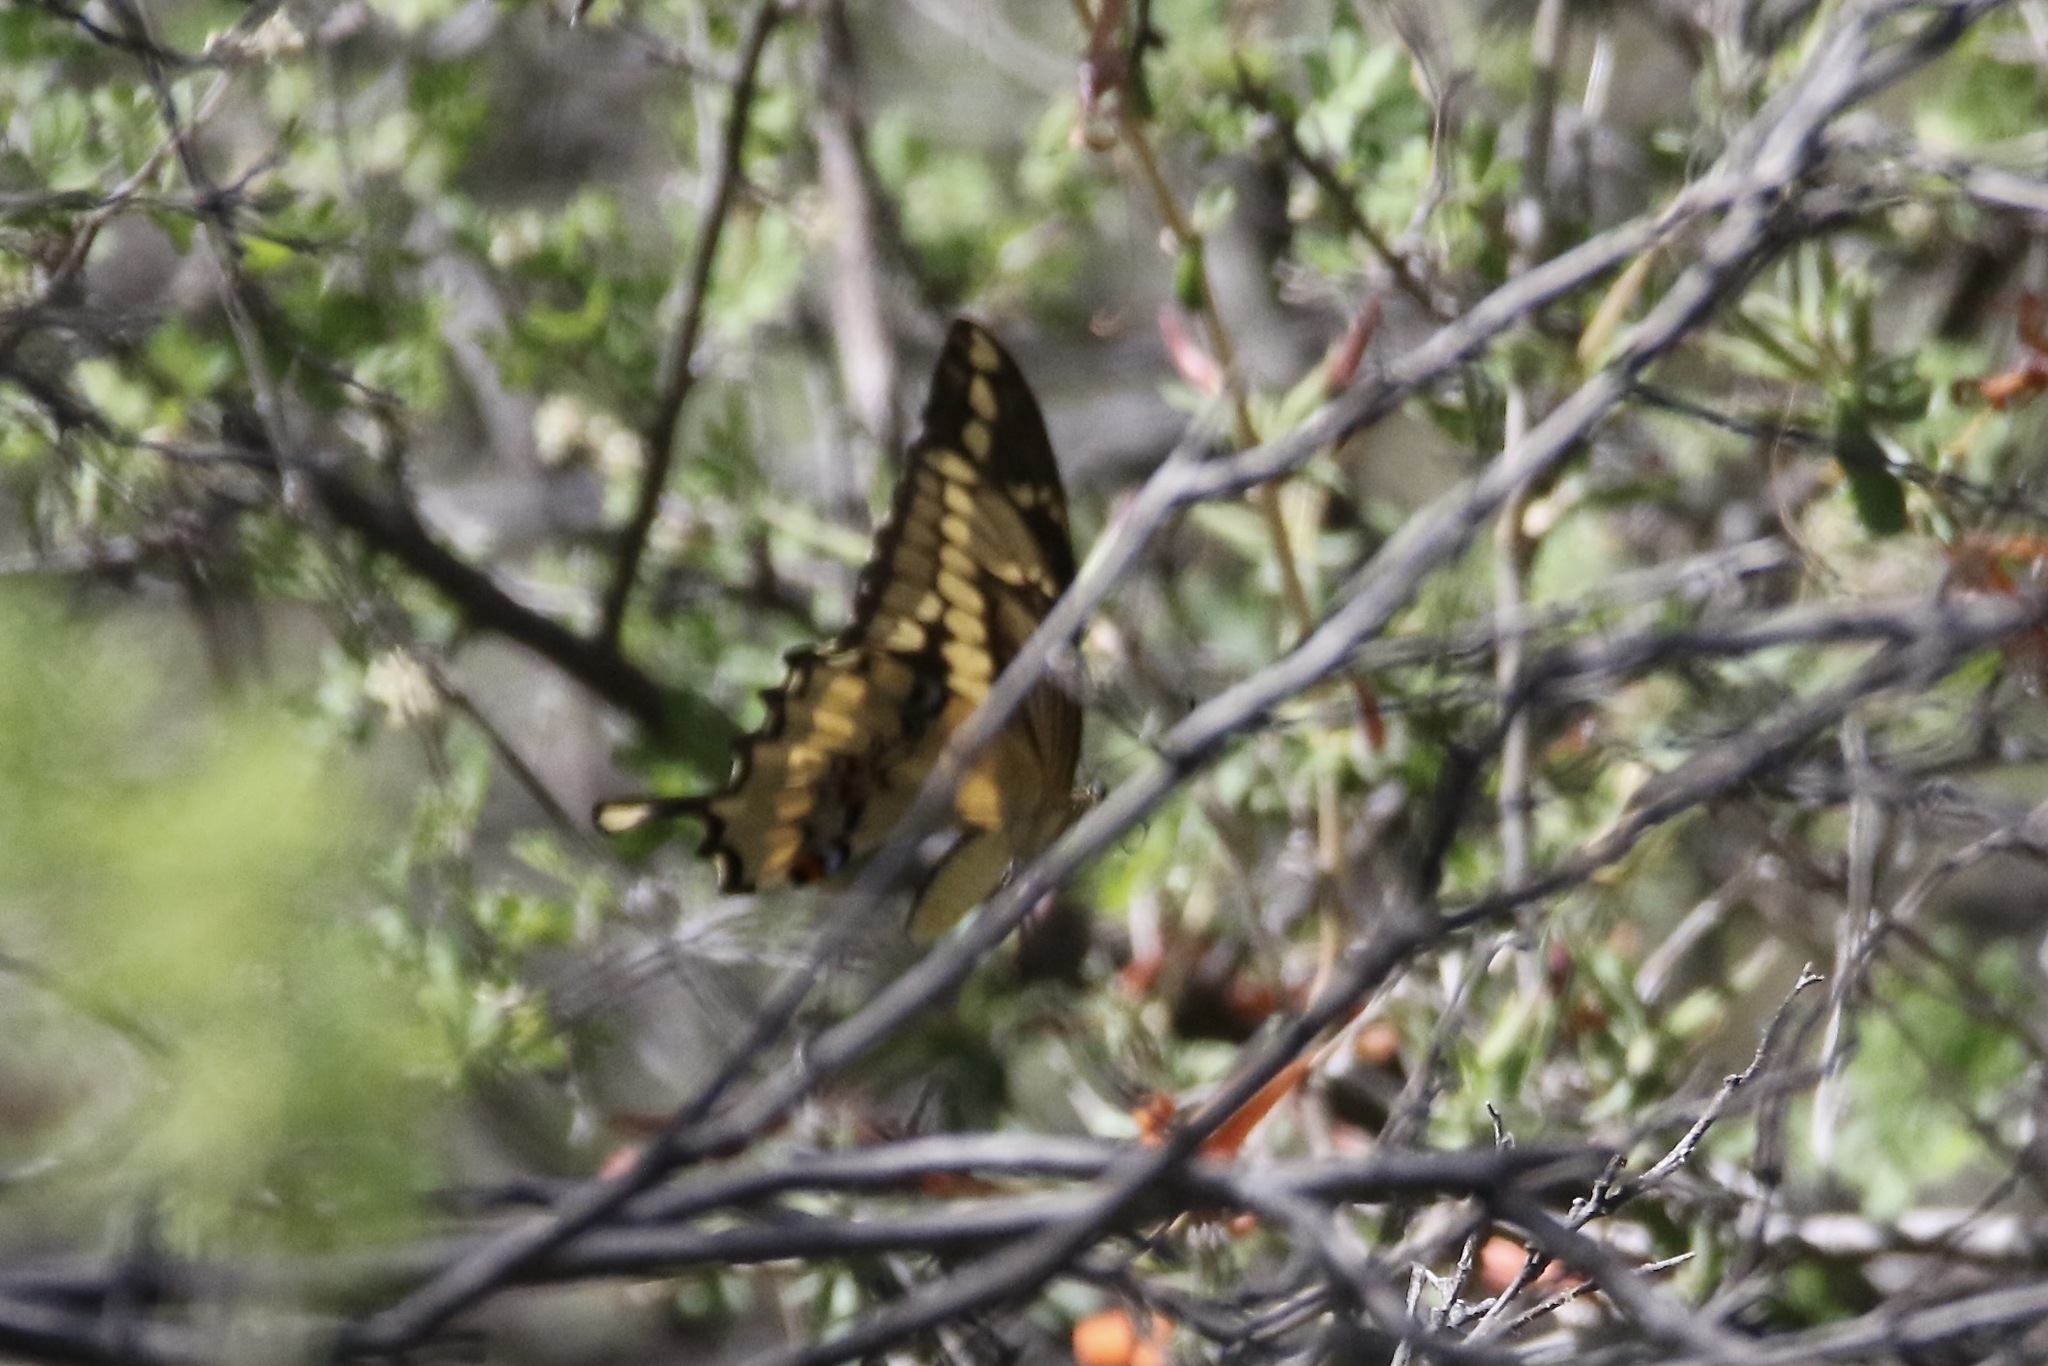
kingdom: Animalia
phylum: Arthropoda
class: Insecta
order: Lepidoptera
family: Papilionidae
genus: Papilio
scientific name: Papilio rumiko
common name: Western giant swallowtail
